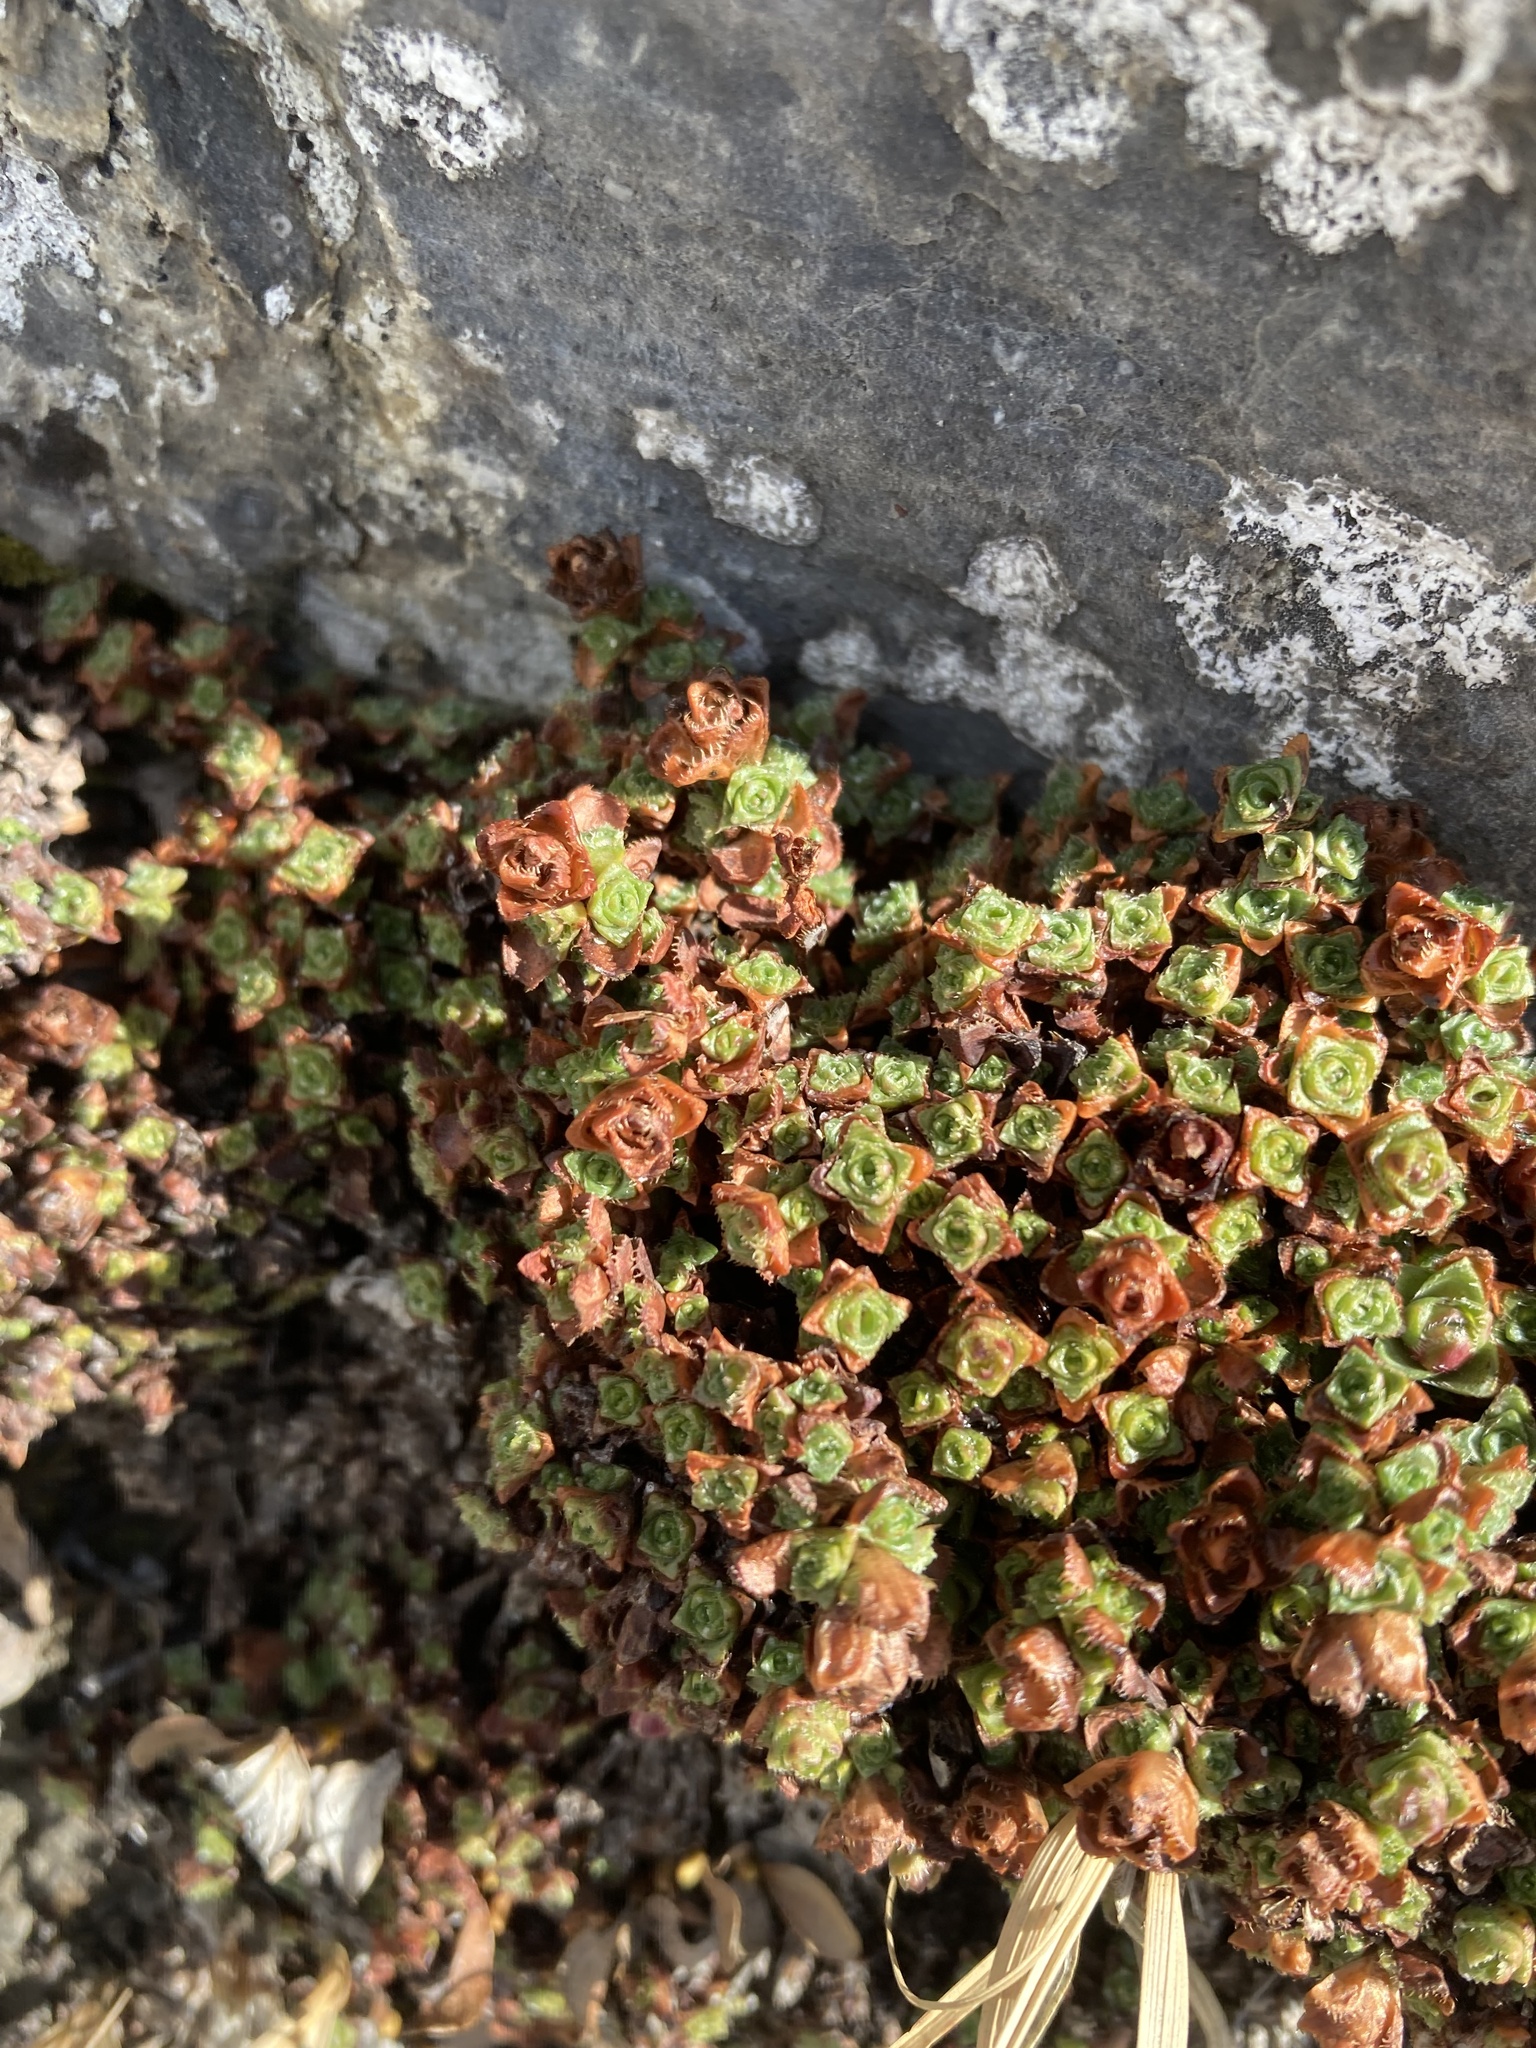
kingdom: Plantae
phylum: Tracheophyta
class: Magnoliopsida
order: Saxifragales
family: Saxifragaceae
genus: Saxifraga
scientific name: Saxifraga oppositifolia
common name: Purple saxifrage
